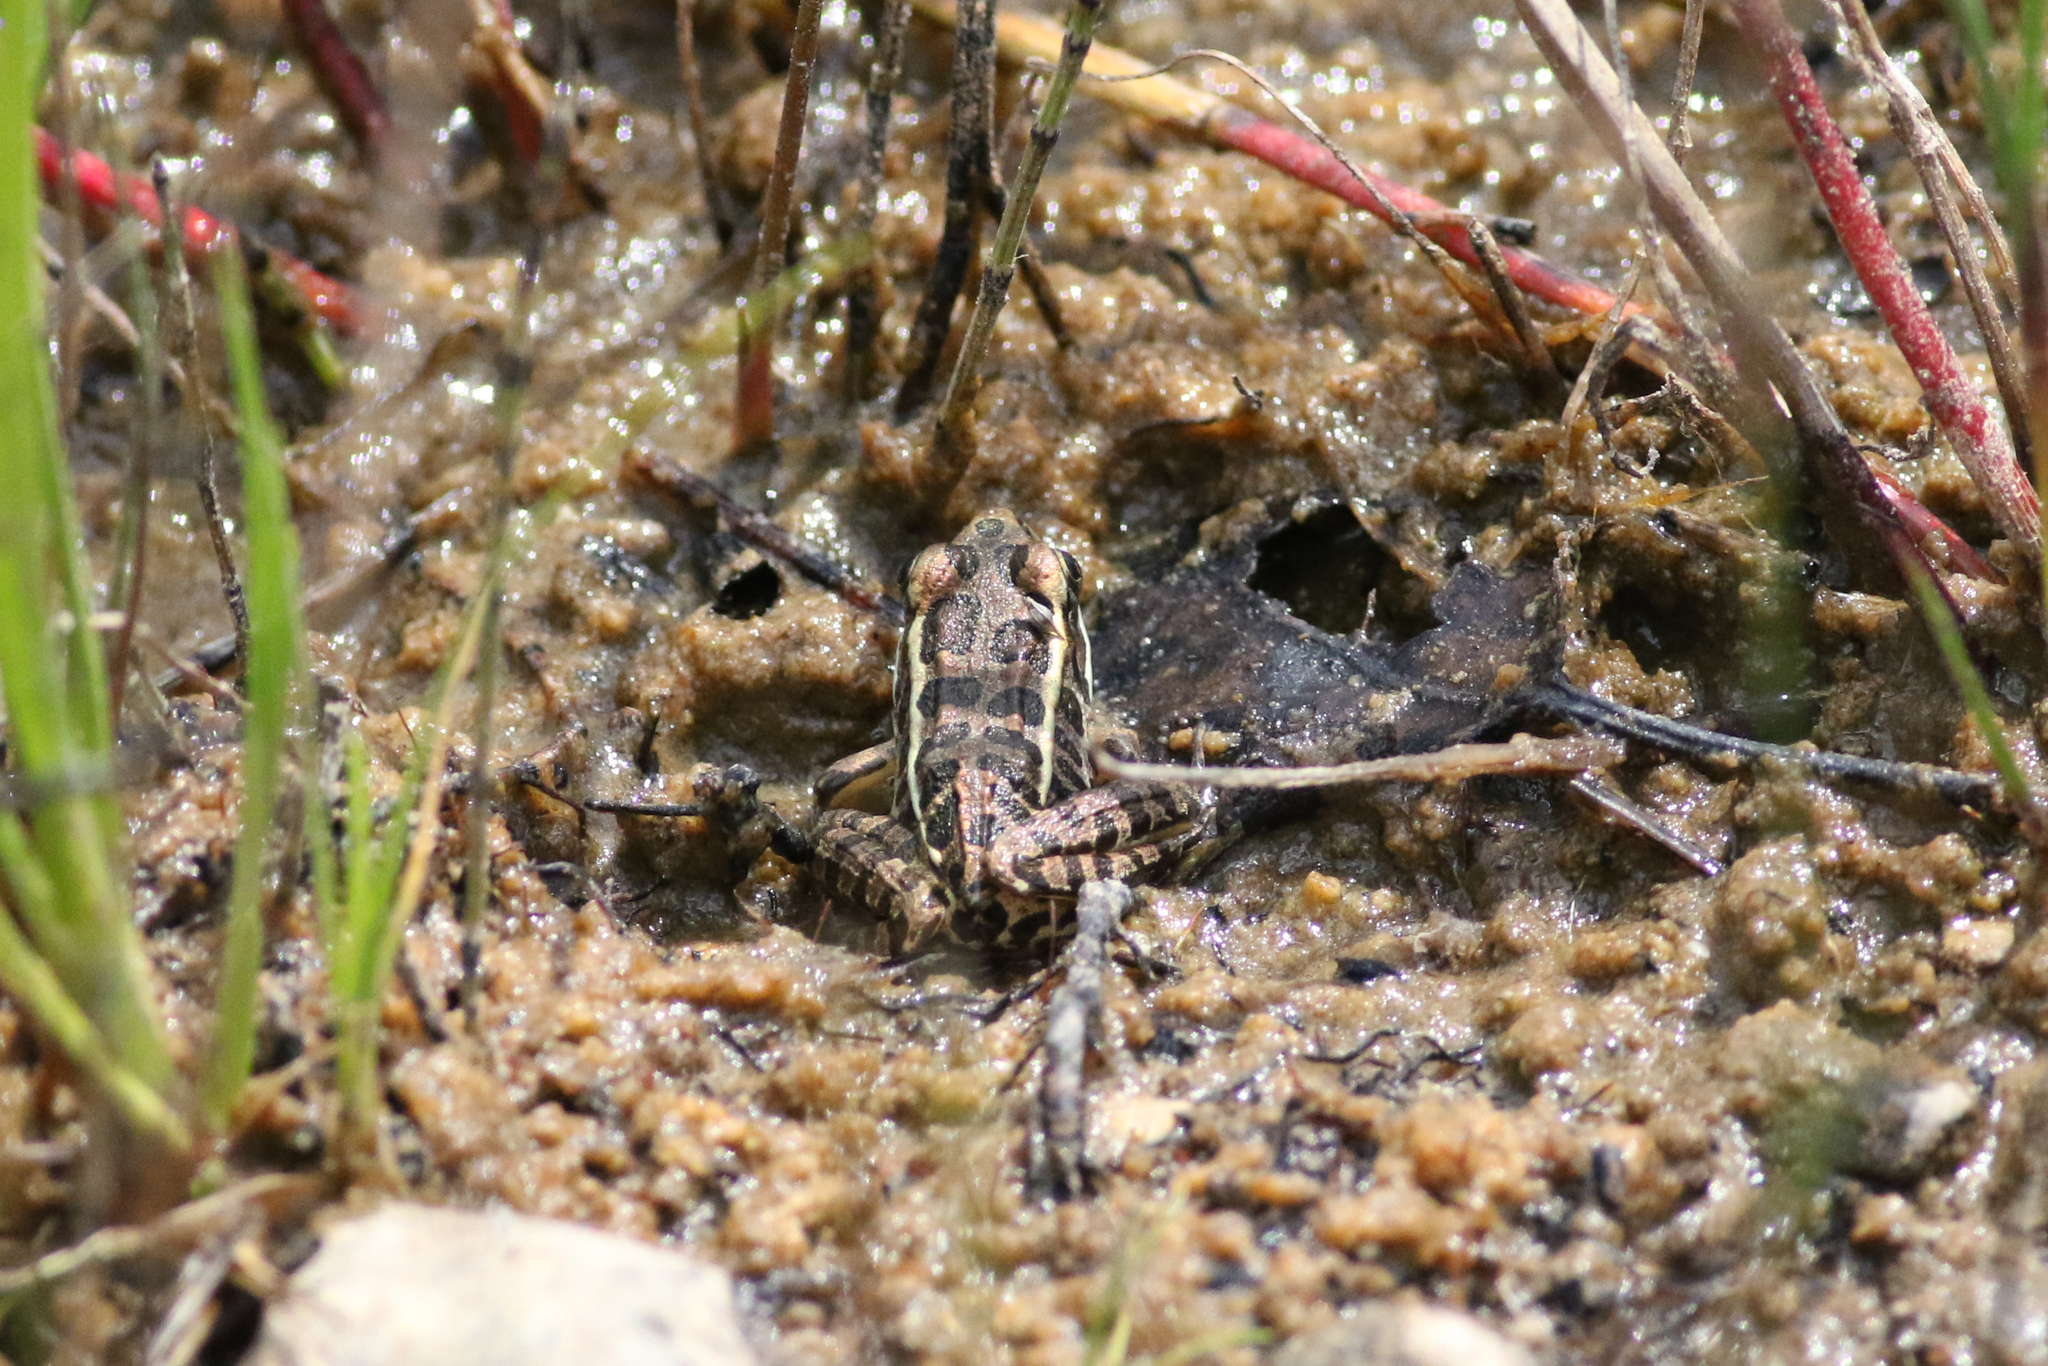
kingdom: Animalia
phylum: Chordata
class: Amphibia
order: Anura
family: Ranidae
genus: Lithobates
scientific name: Lithobates palustris
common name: Pickerel frog
